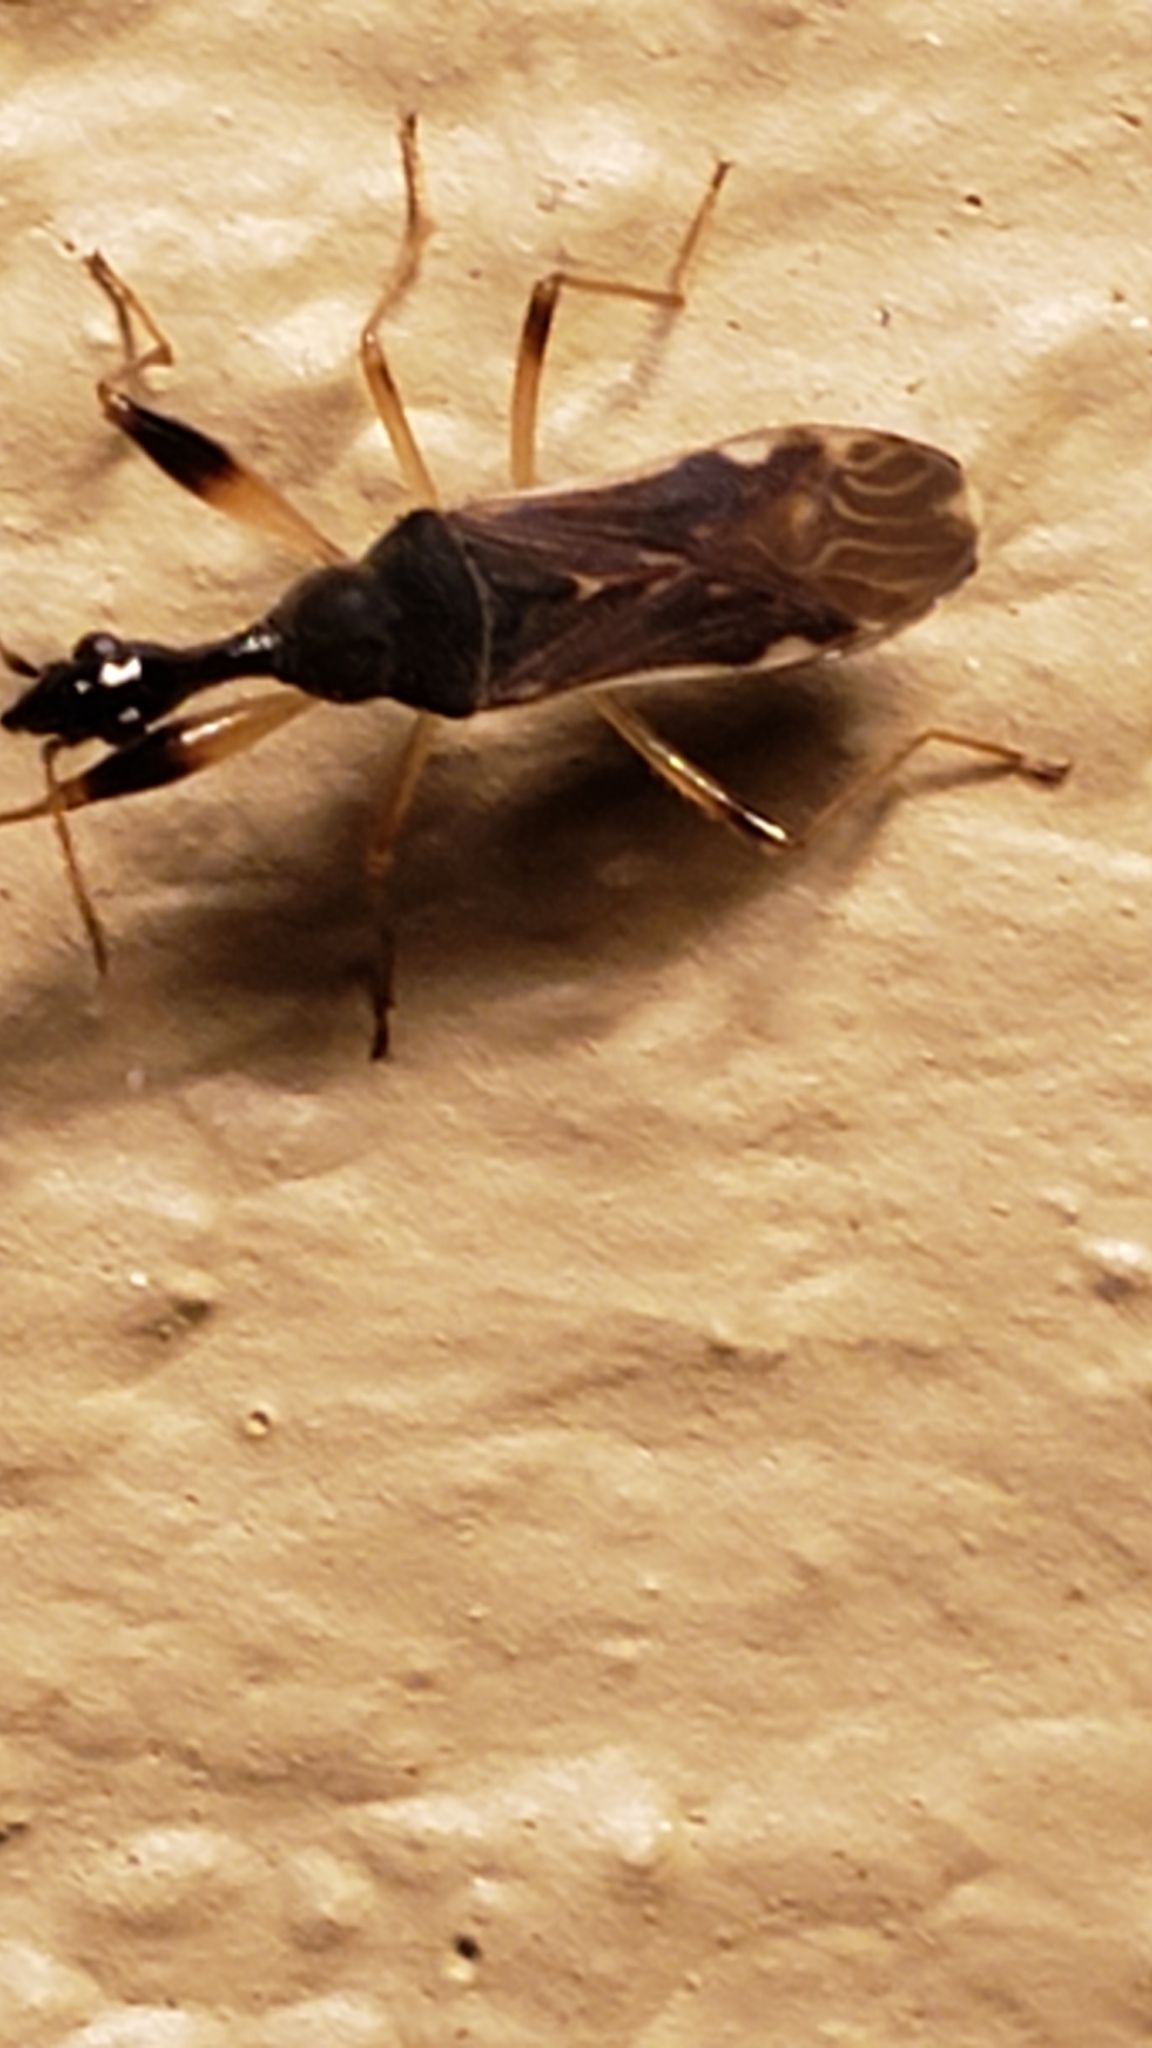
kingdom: Animalia
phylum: Arthropoda
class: Insecta
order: Hemiptera
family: Rhyparochromidae
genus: Myodocha
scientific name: Myodocha serripes
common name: Long-necked seed bug
